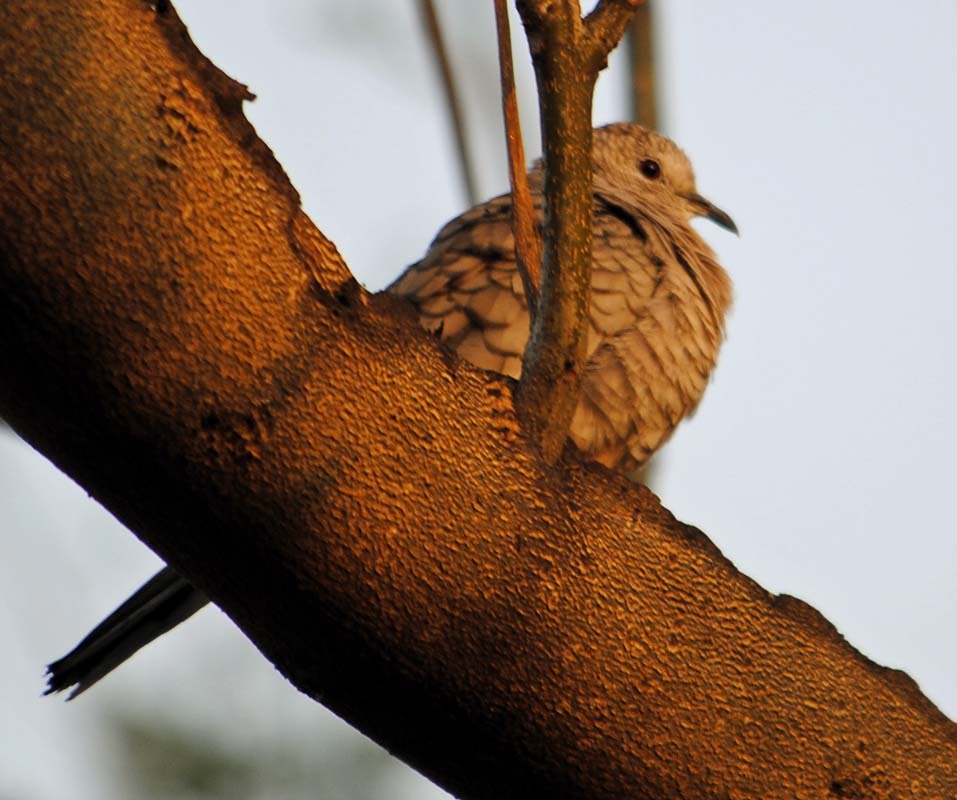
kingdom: Animalia
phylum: Chordata
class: Aves
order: Columbiformes
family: Columbidae
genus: Columbina
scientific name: Columbina inca
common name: Inca dove
